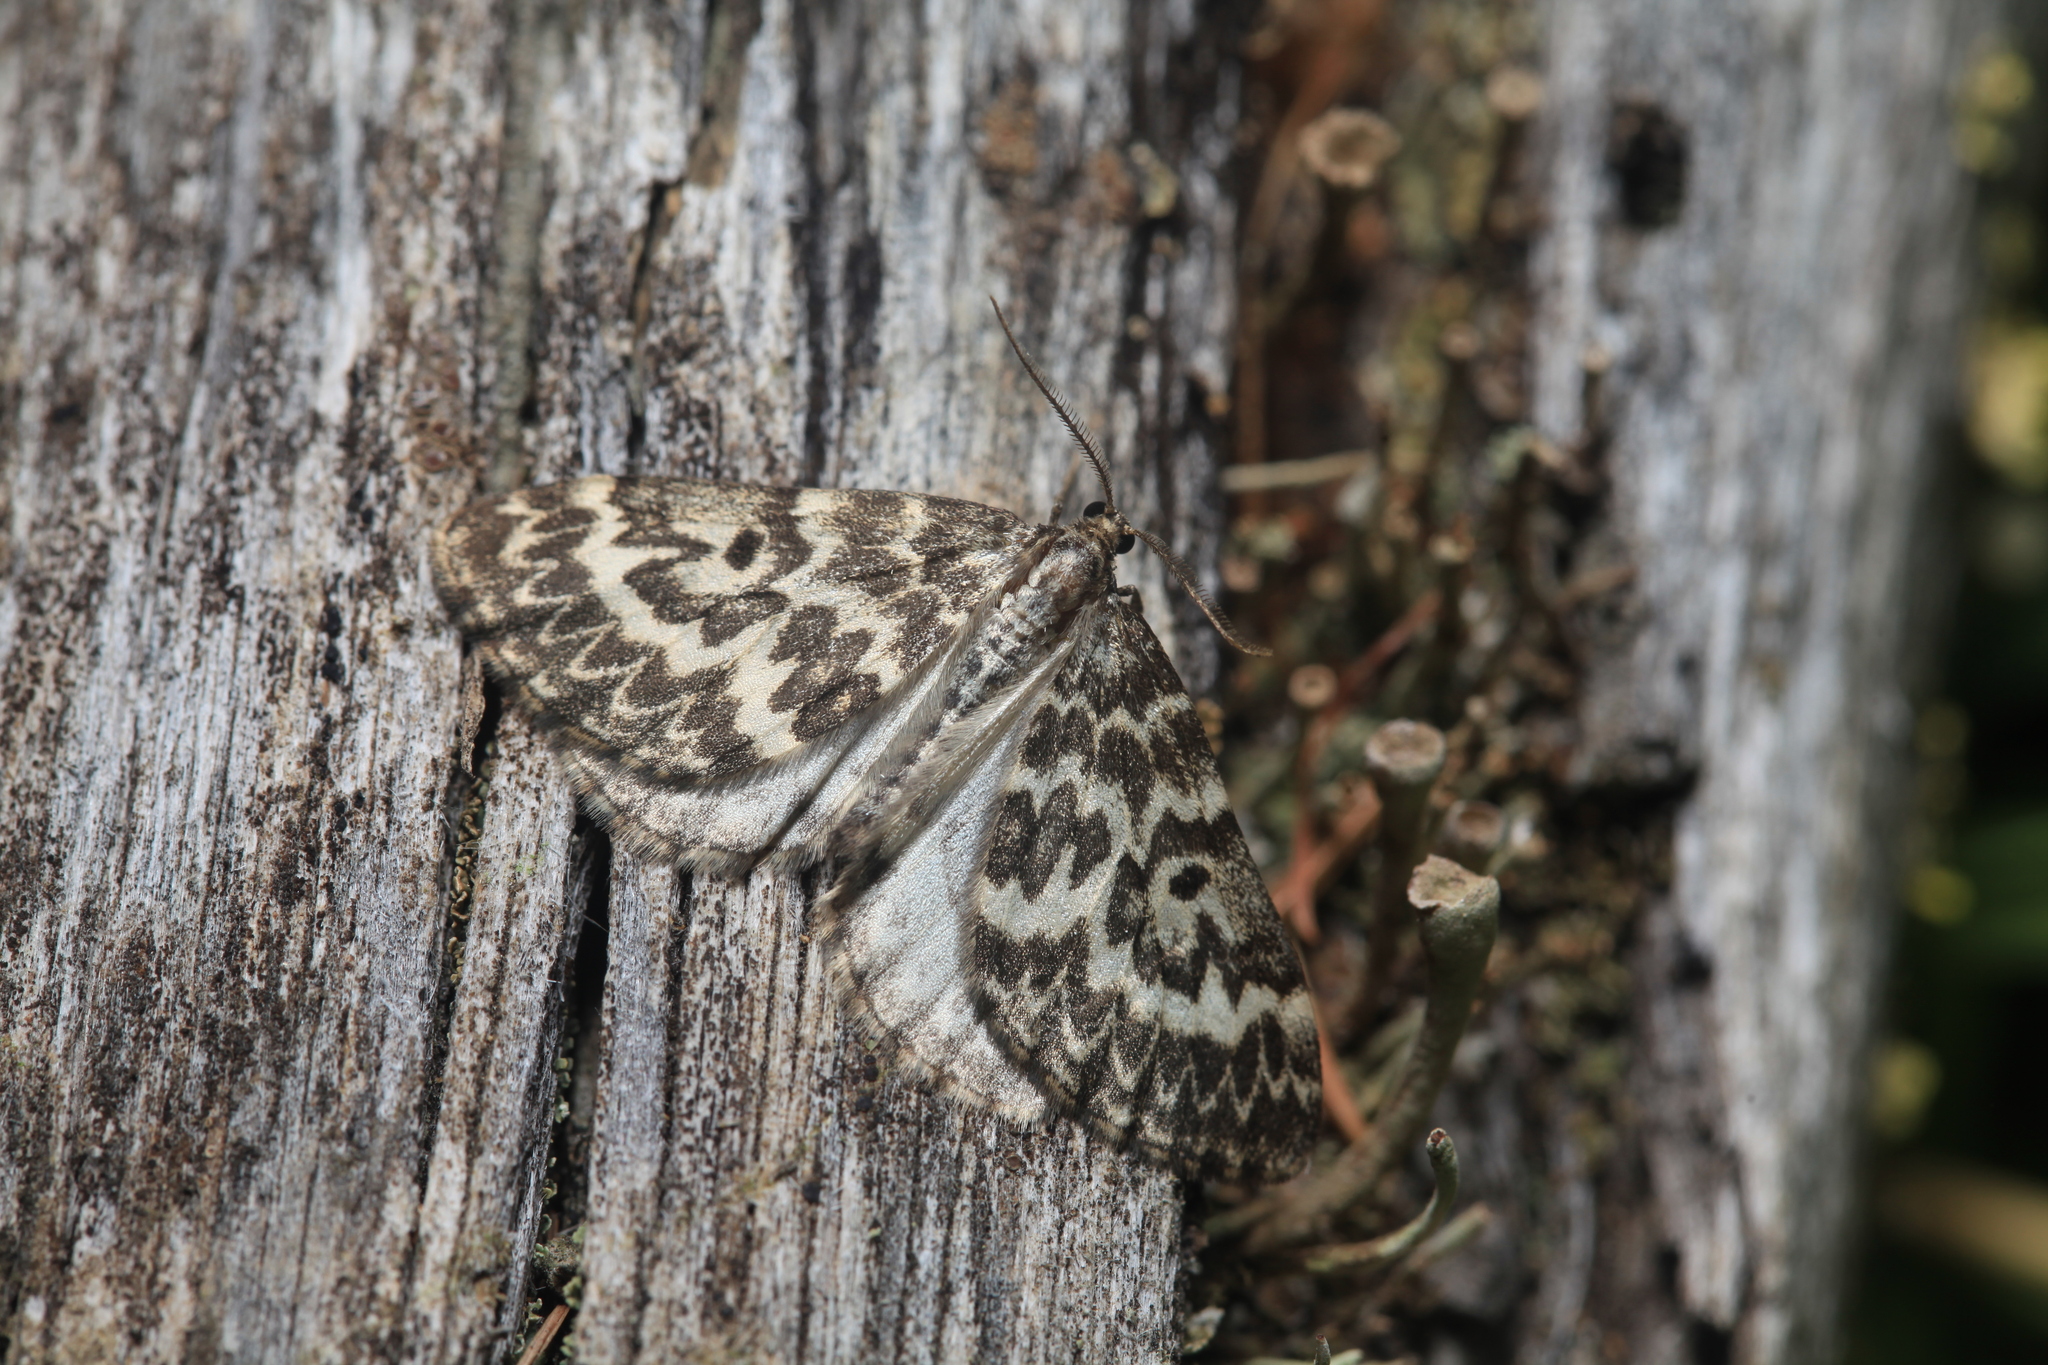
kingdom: Animalia
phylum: Arthropoda
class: Insecta
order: Lepidoptera
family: Geometridae
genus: Heterothera
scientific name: Heterothera serraria
